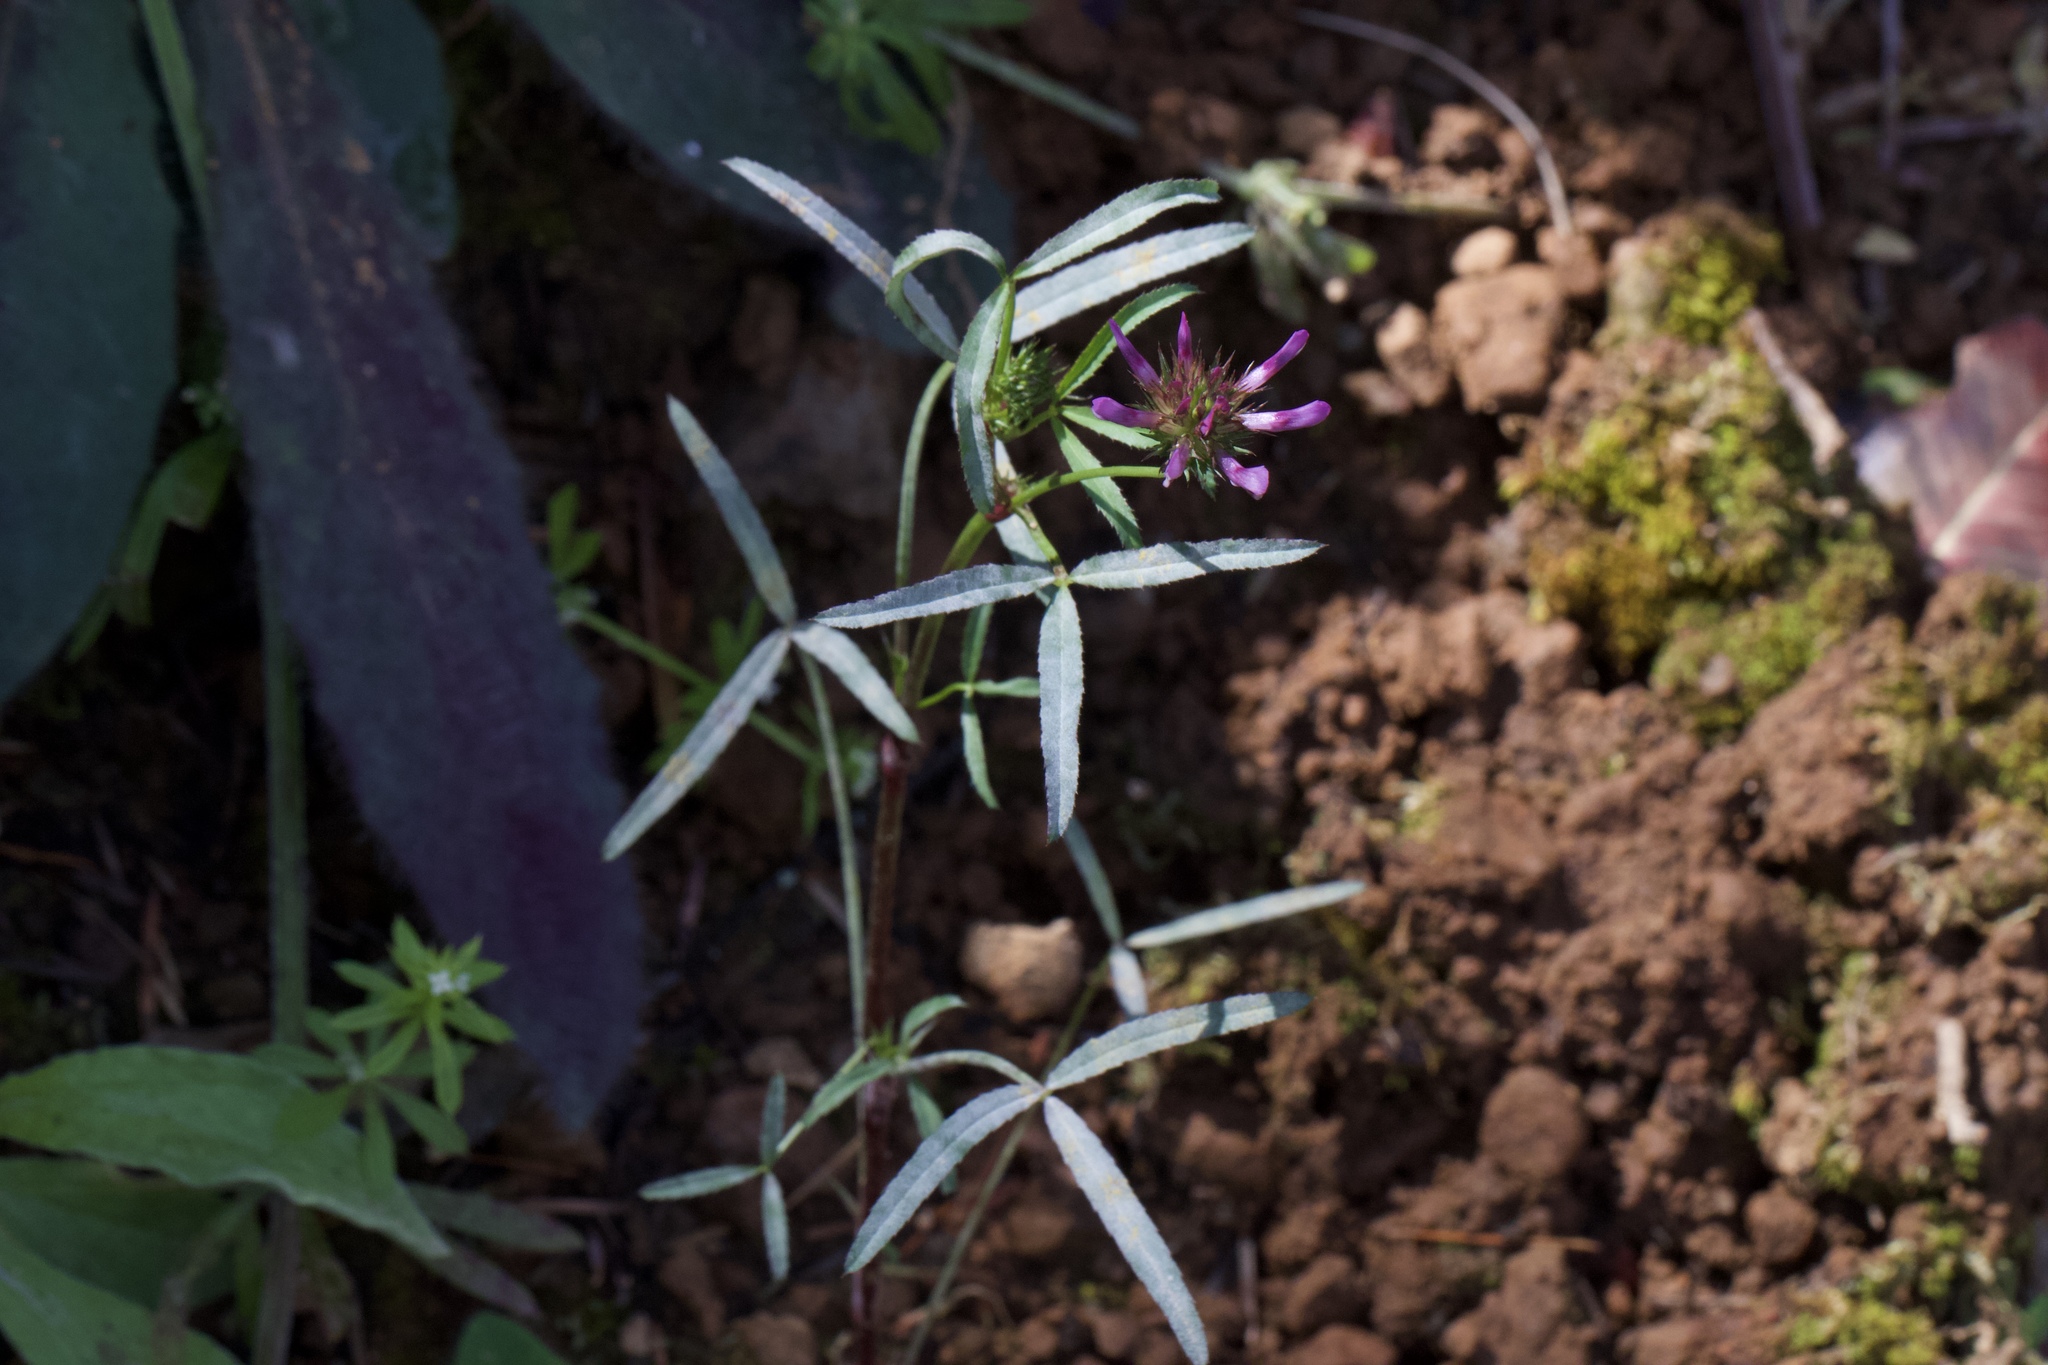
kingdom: Plantae
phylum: Tracheophyta
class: Magnoliopsida
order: Fabales
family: Fabaceae
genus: Trifolium
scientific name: Trifolium willdenovii
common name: Tomcat clover
